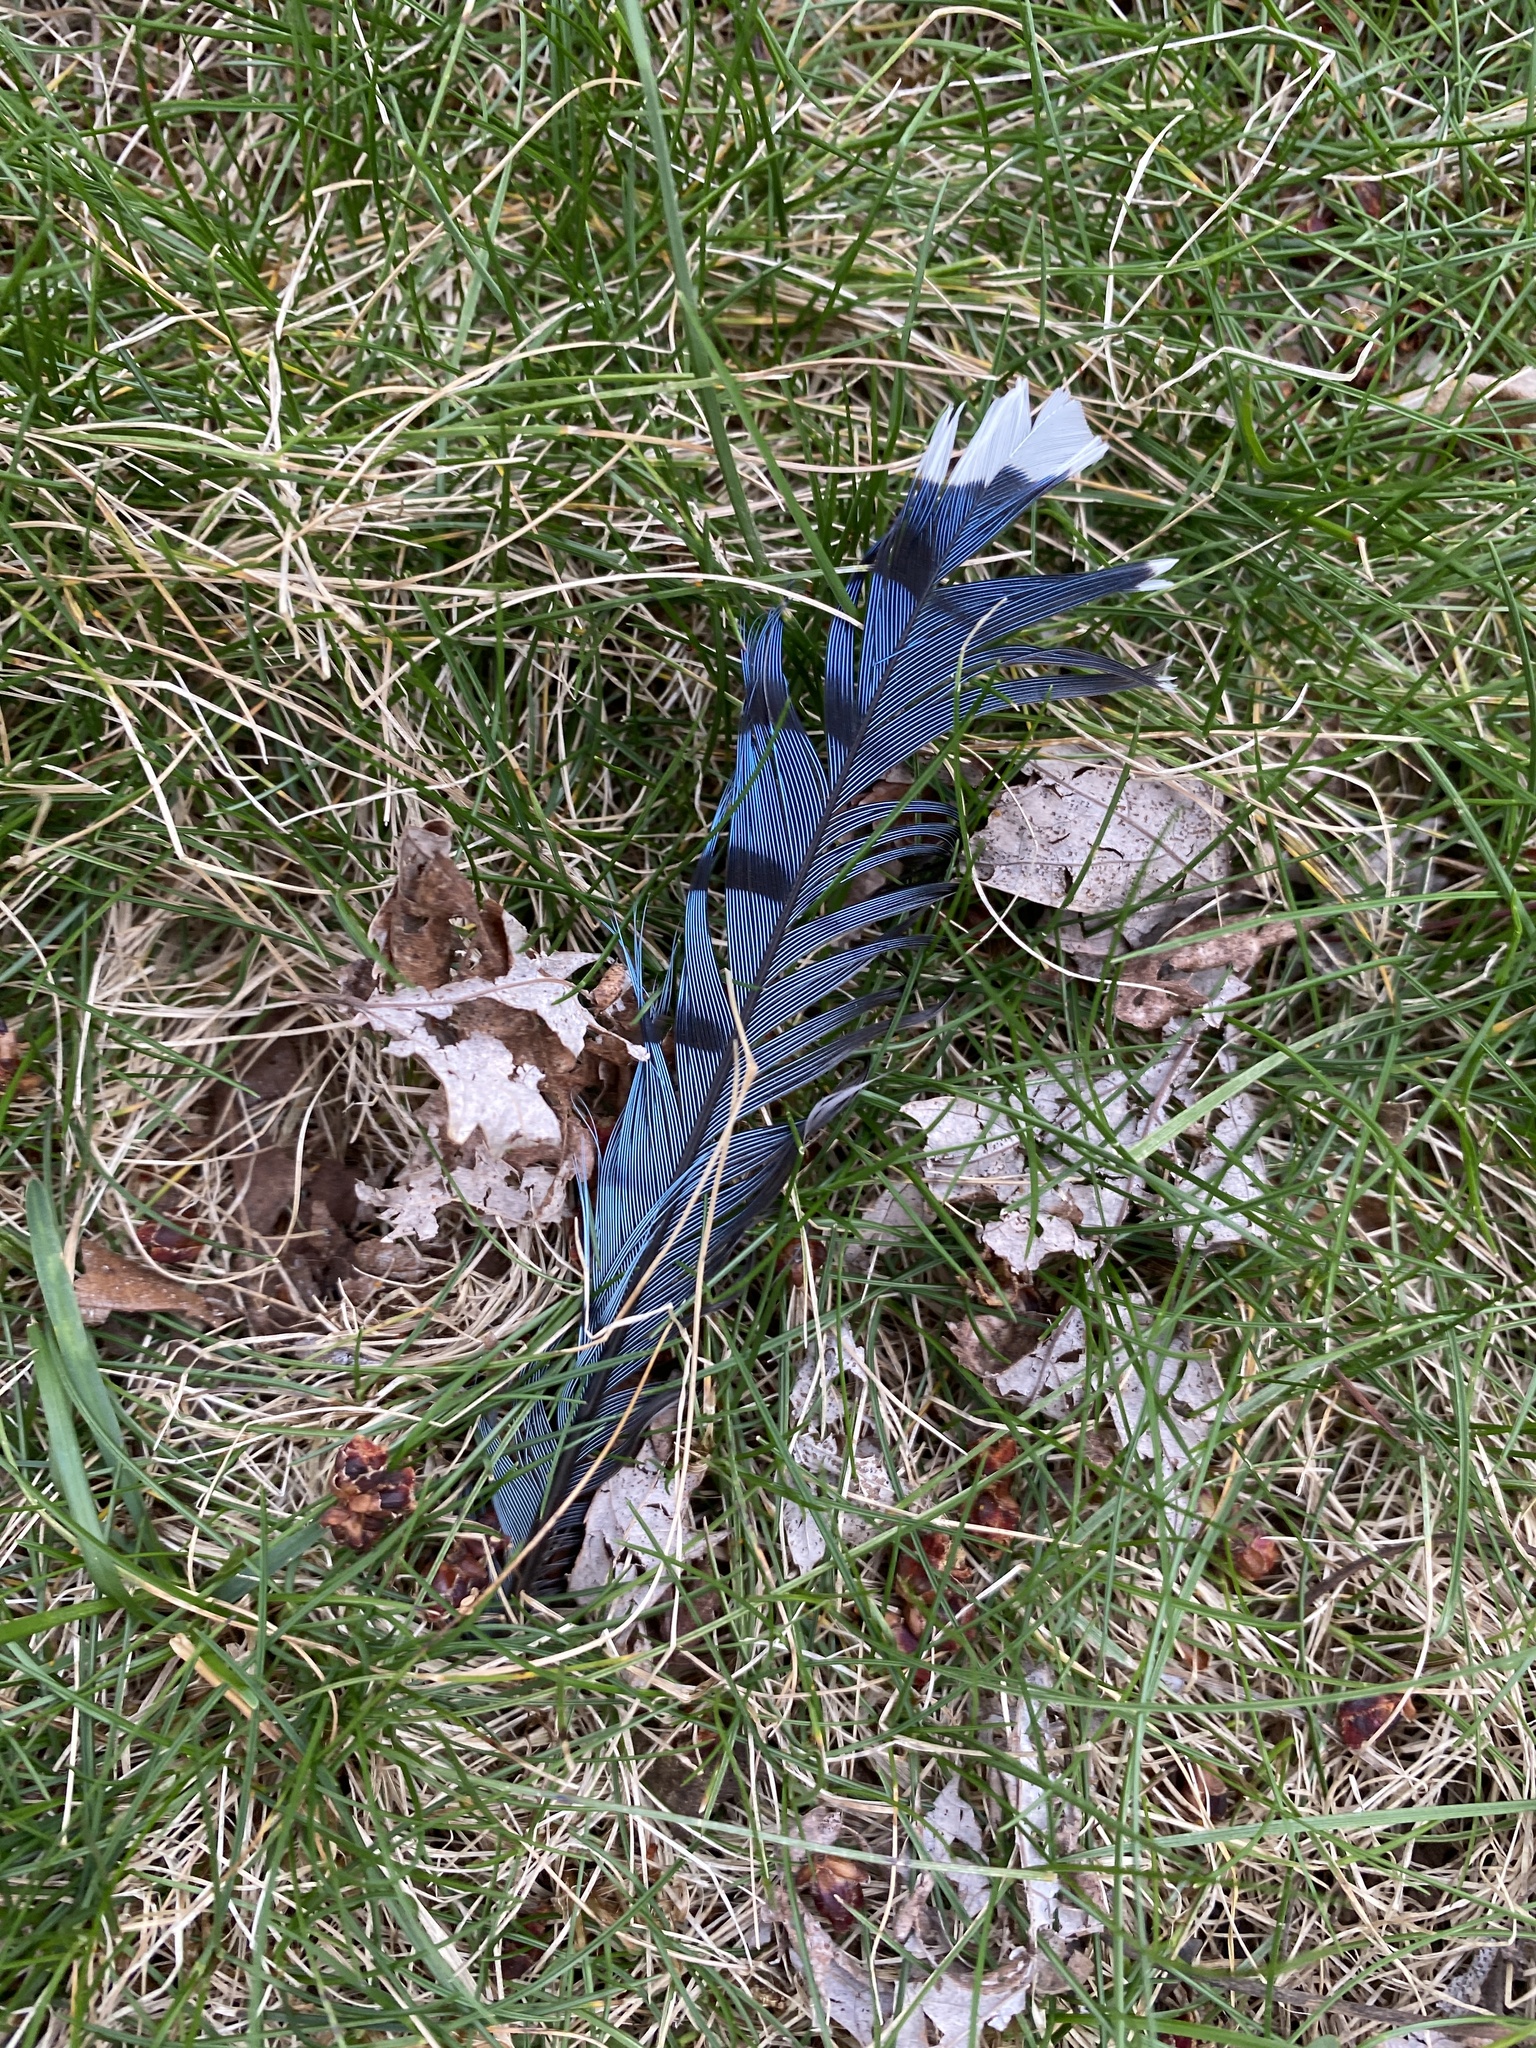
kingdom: Animalia
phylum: Chordata
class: Aves
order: Passeriformes
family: Corvidae
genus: Cyanocitta
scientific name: Cyanocitta cristata
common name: Blue jay
